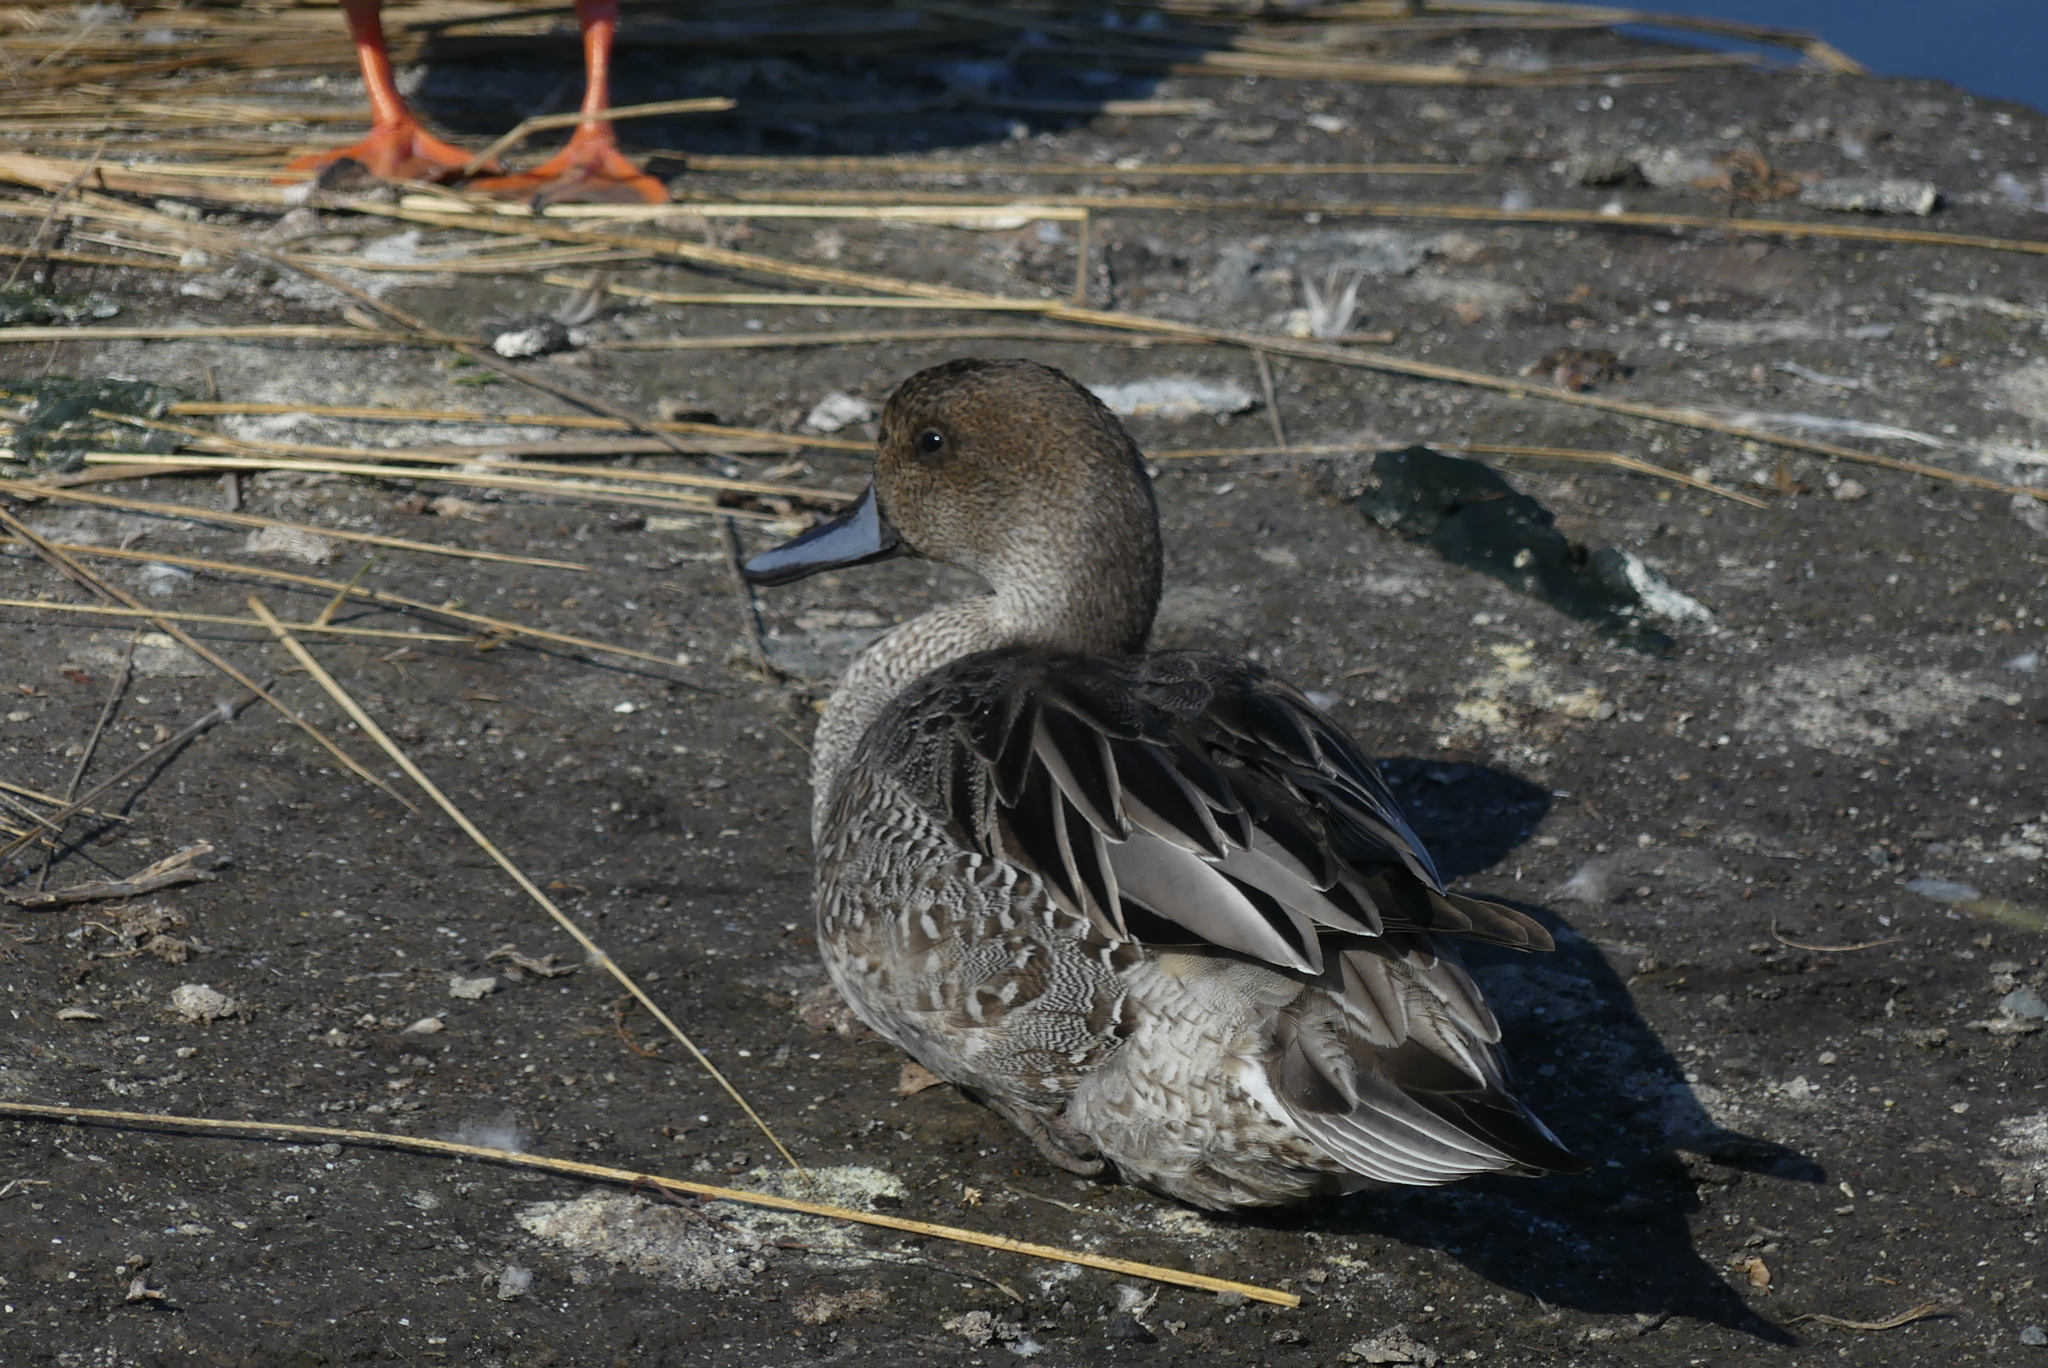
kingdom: Animalia
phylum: Chordata
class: Aves
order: Anseriformes
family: Anatidae
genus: Anas
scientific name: Anas acuta
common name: Northern pintail
